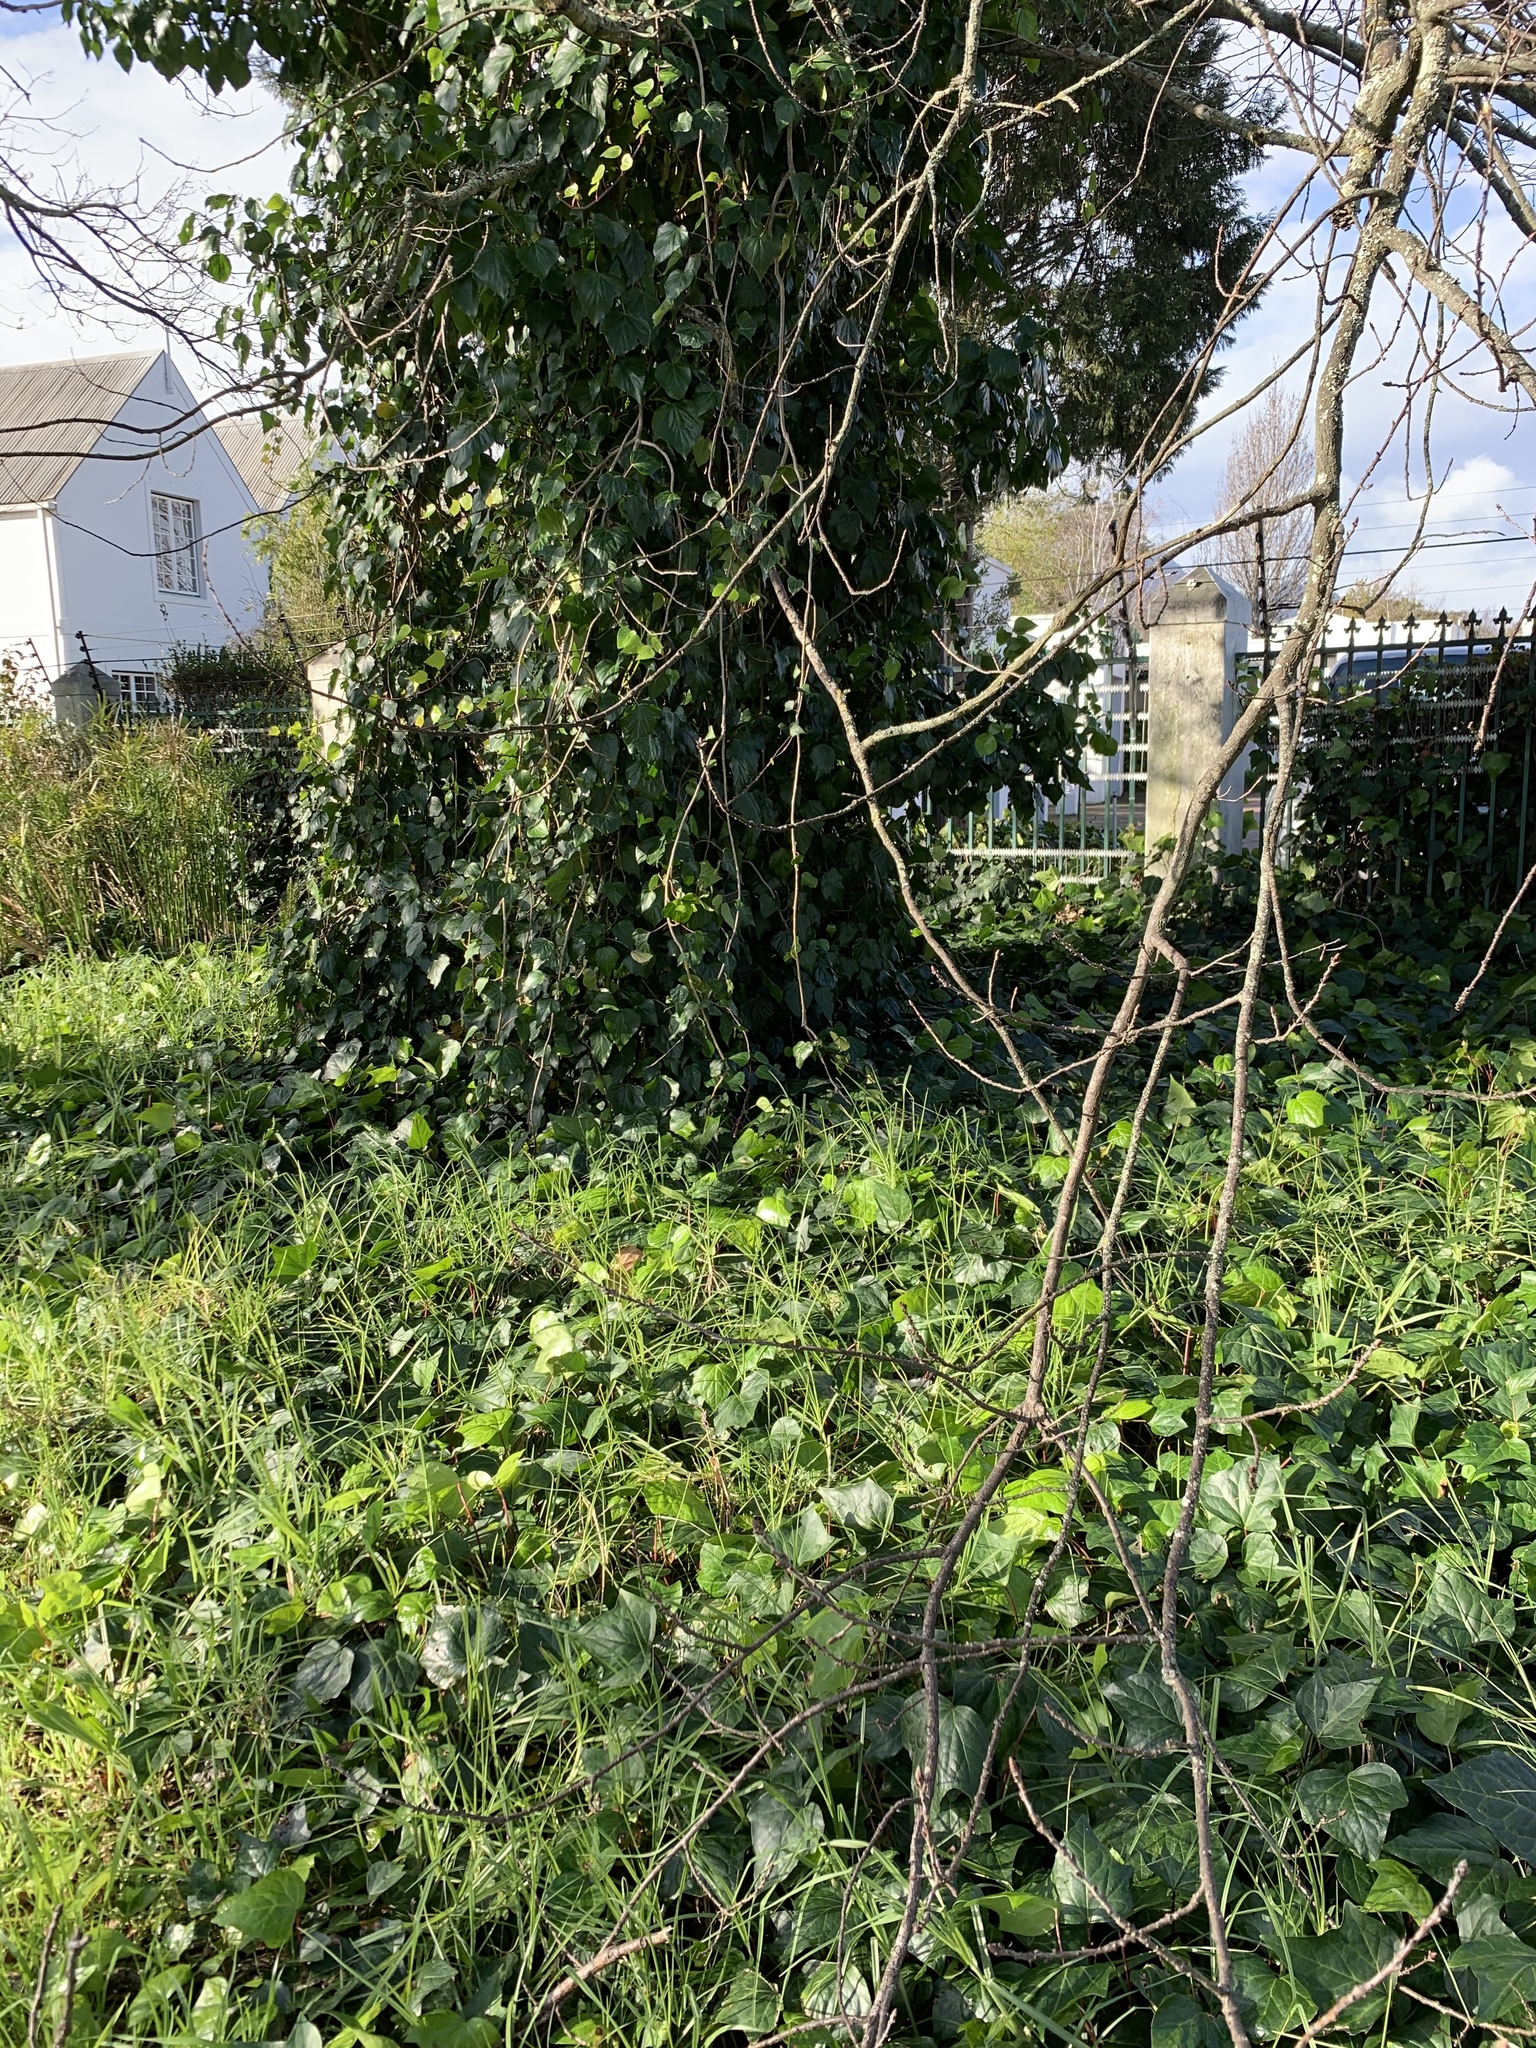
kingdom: Plantae
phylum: Tracheophyta
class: Magnoliopsida
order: Apiales
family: Araliaceae
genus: Hedera
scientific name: Hedera canariensis
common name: Madeira ivy
